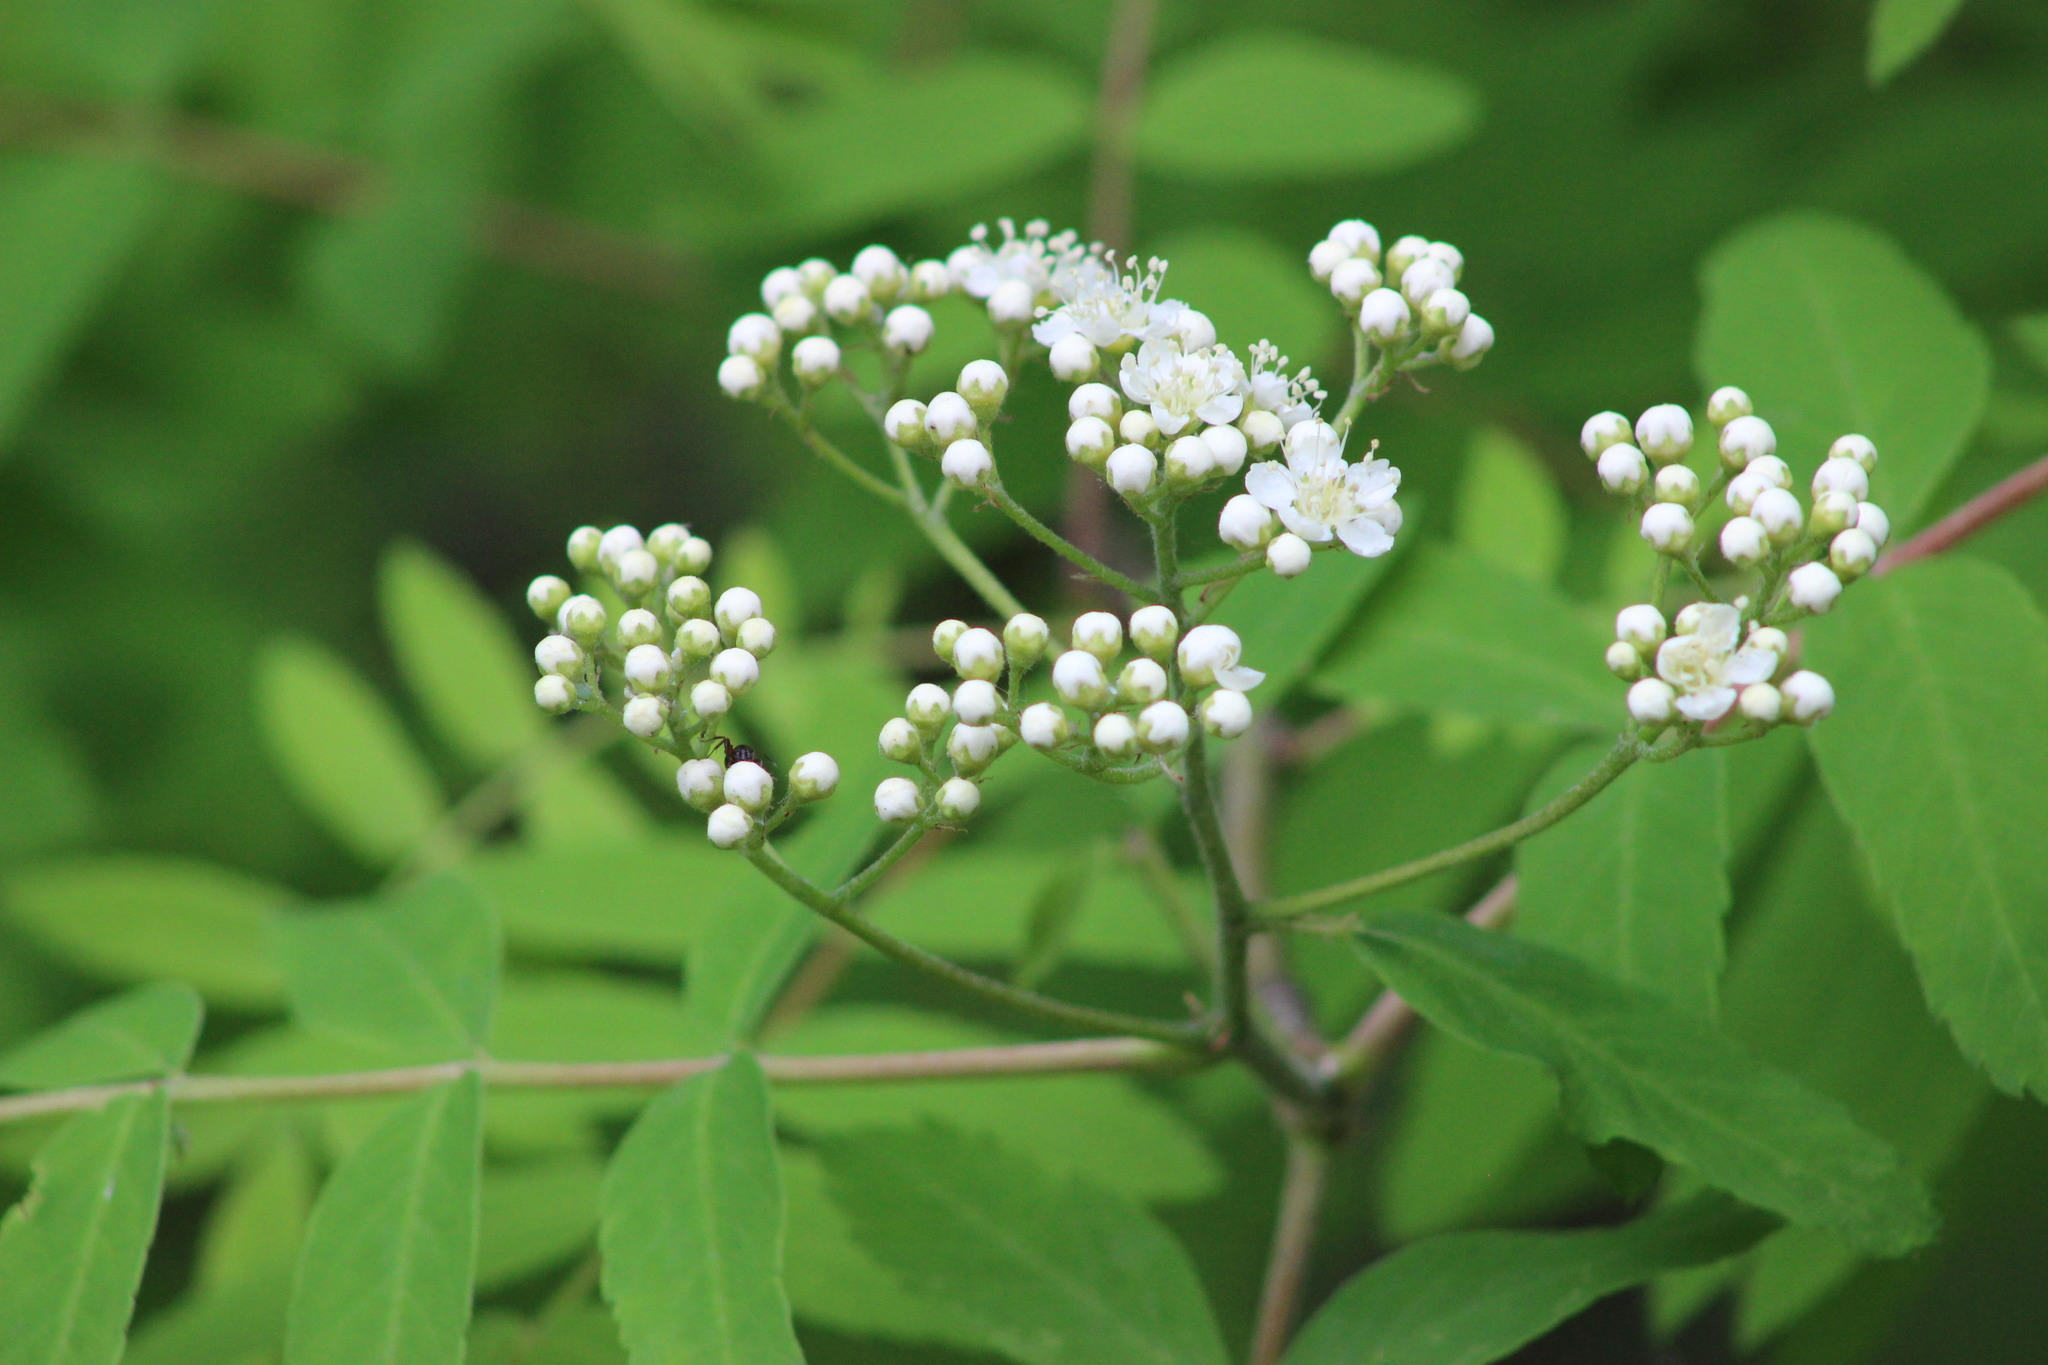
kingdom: Plantae
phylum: Tracheophyta
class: Magnoliopsida
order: Rosales
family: Rosaceae
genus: Sorbus
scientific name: Sorbus aucuparia
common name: Rowan
